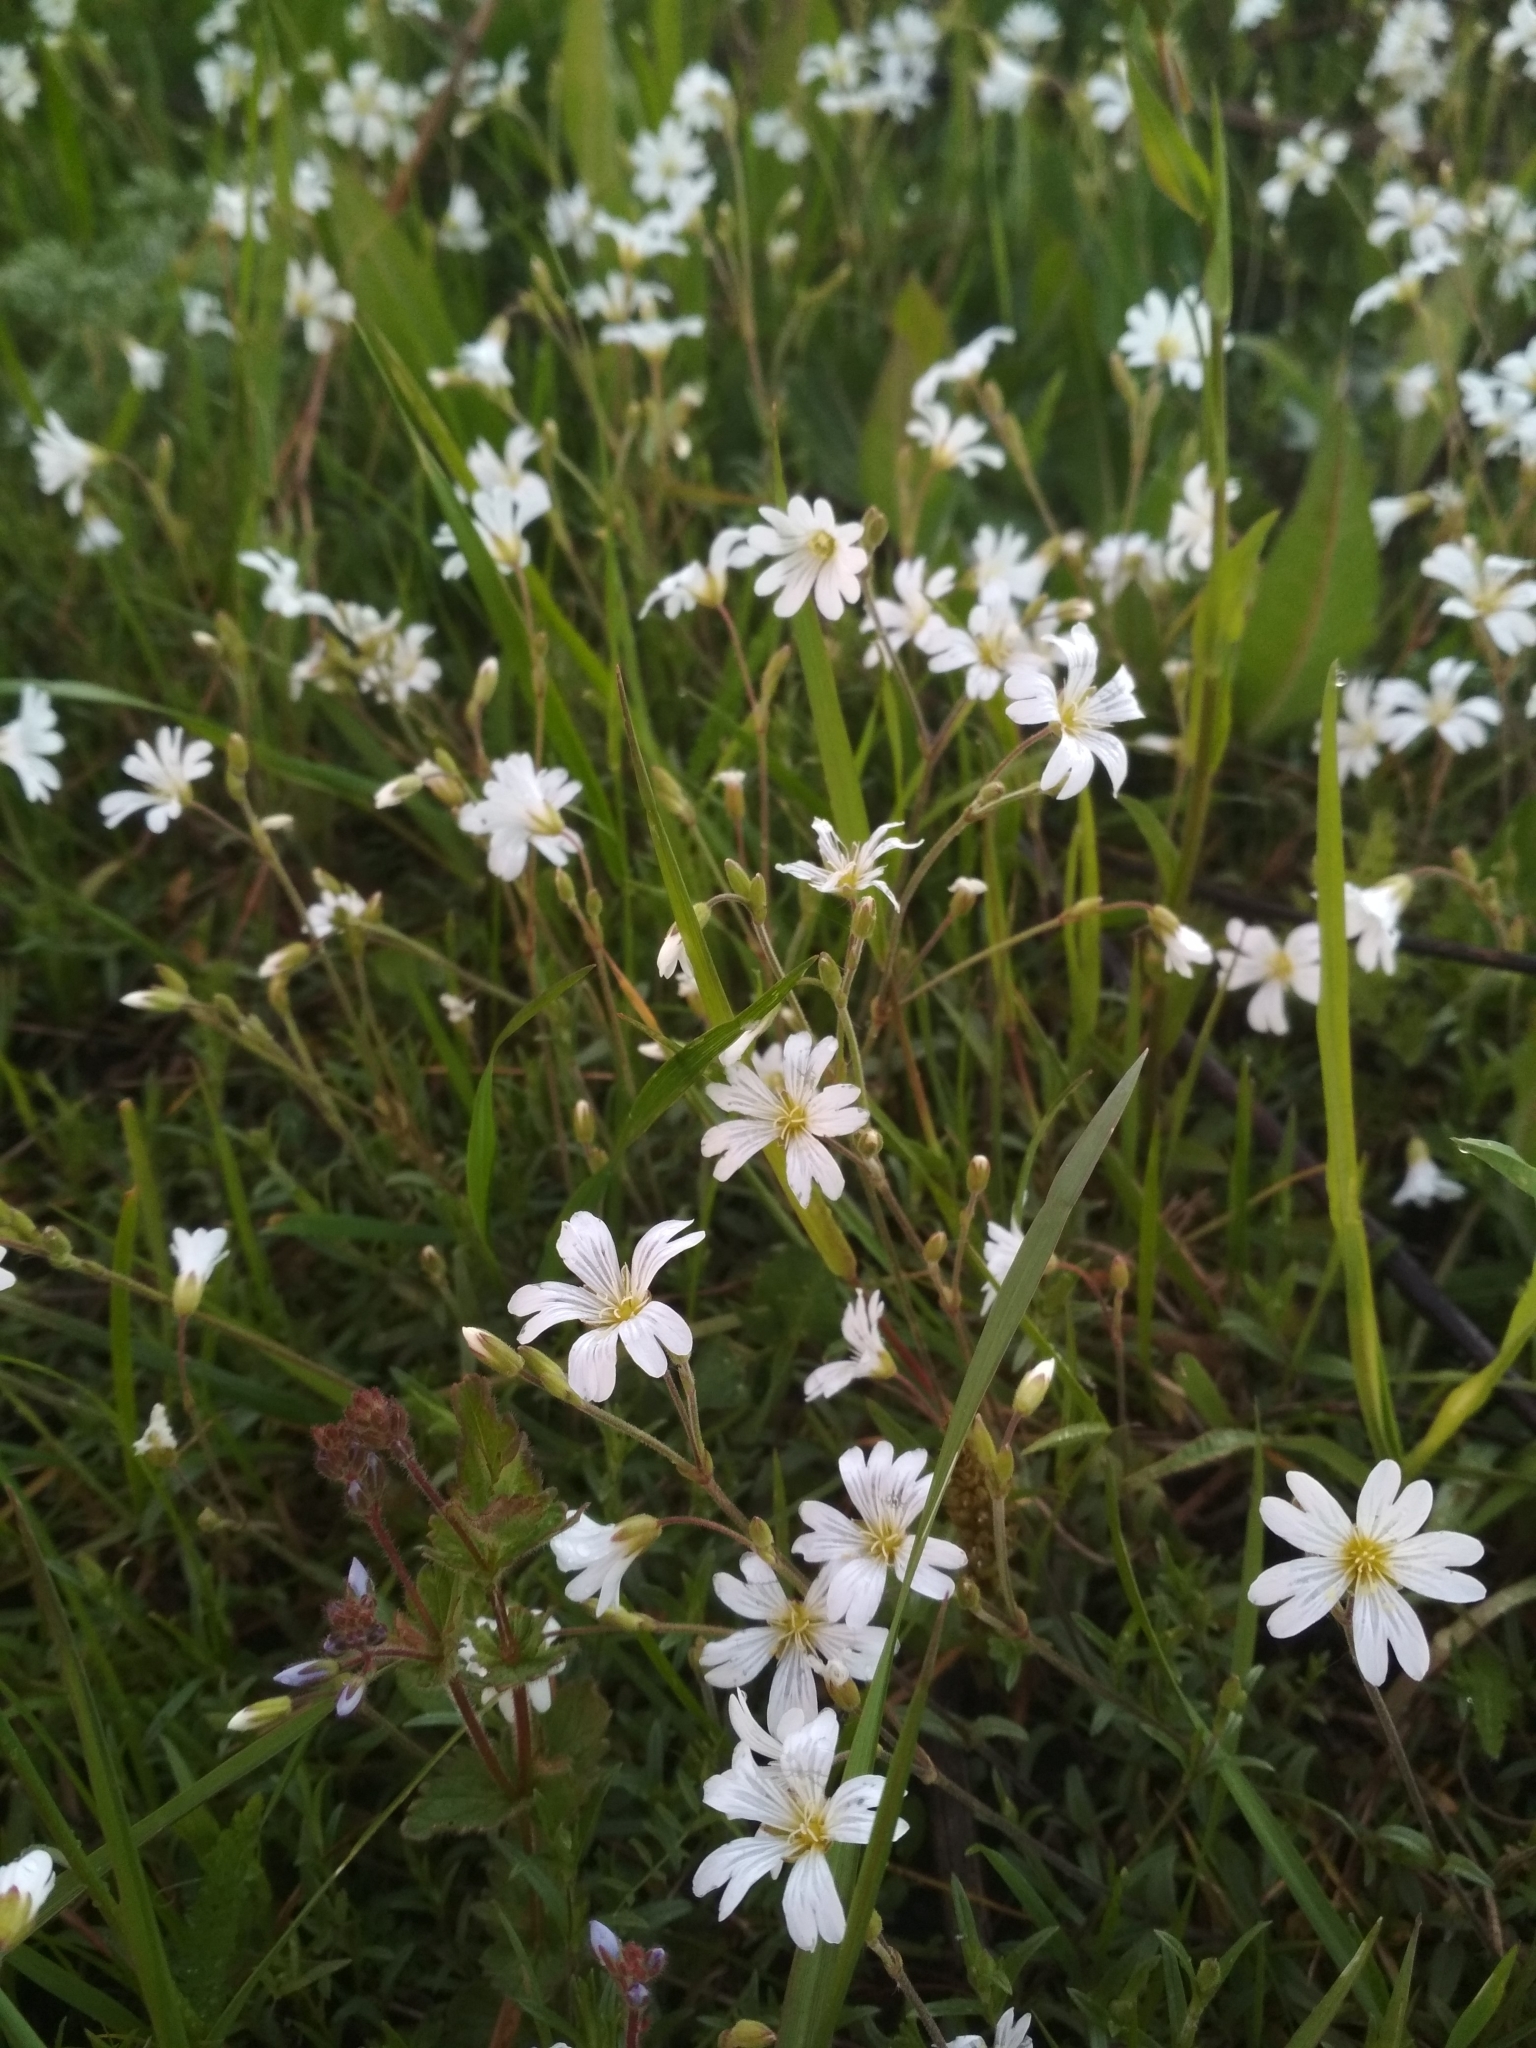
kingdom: Plantae
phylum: Tracheophyta
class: Magnoliopsida
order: Caryophyllales
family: Caryophyllaceae
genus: Cerastium
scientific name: Cerastium arvense
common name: Field mouse-ear
